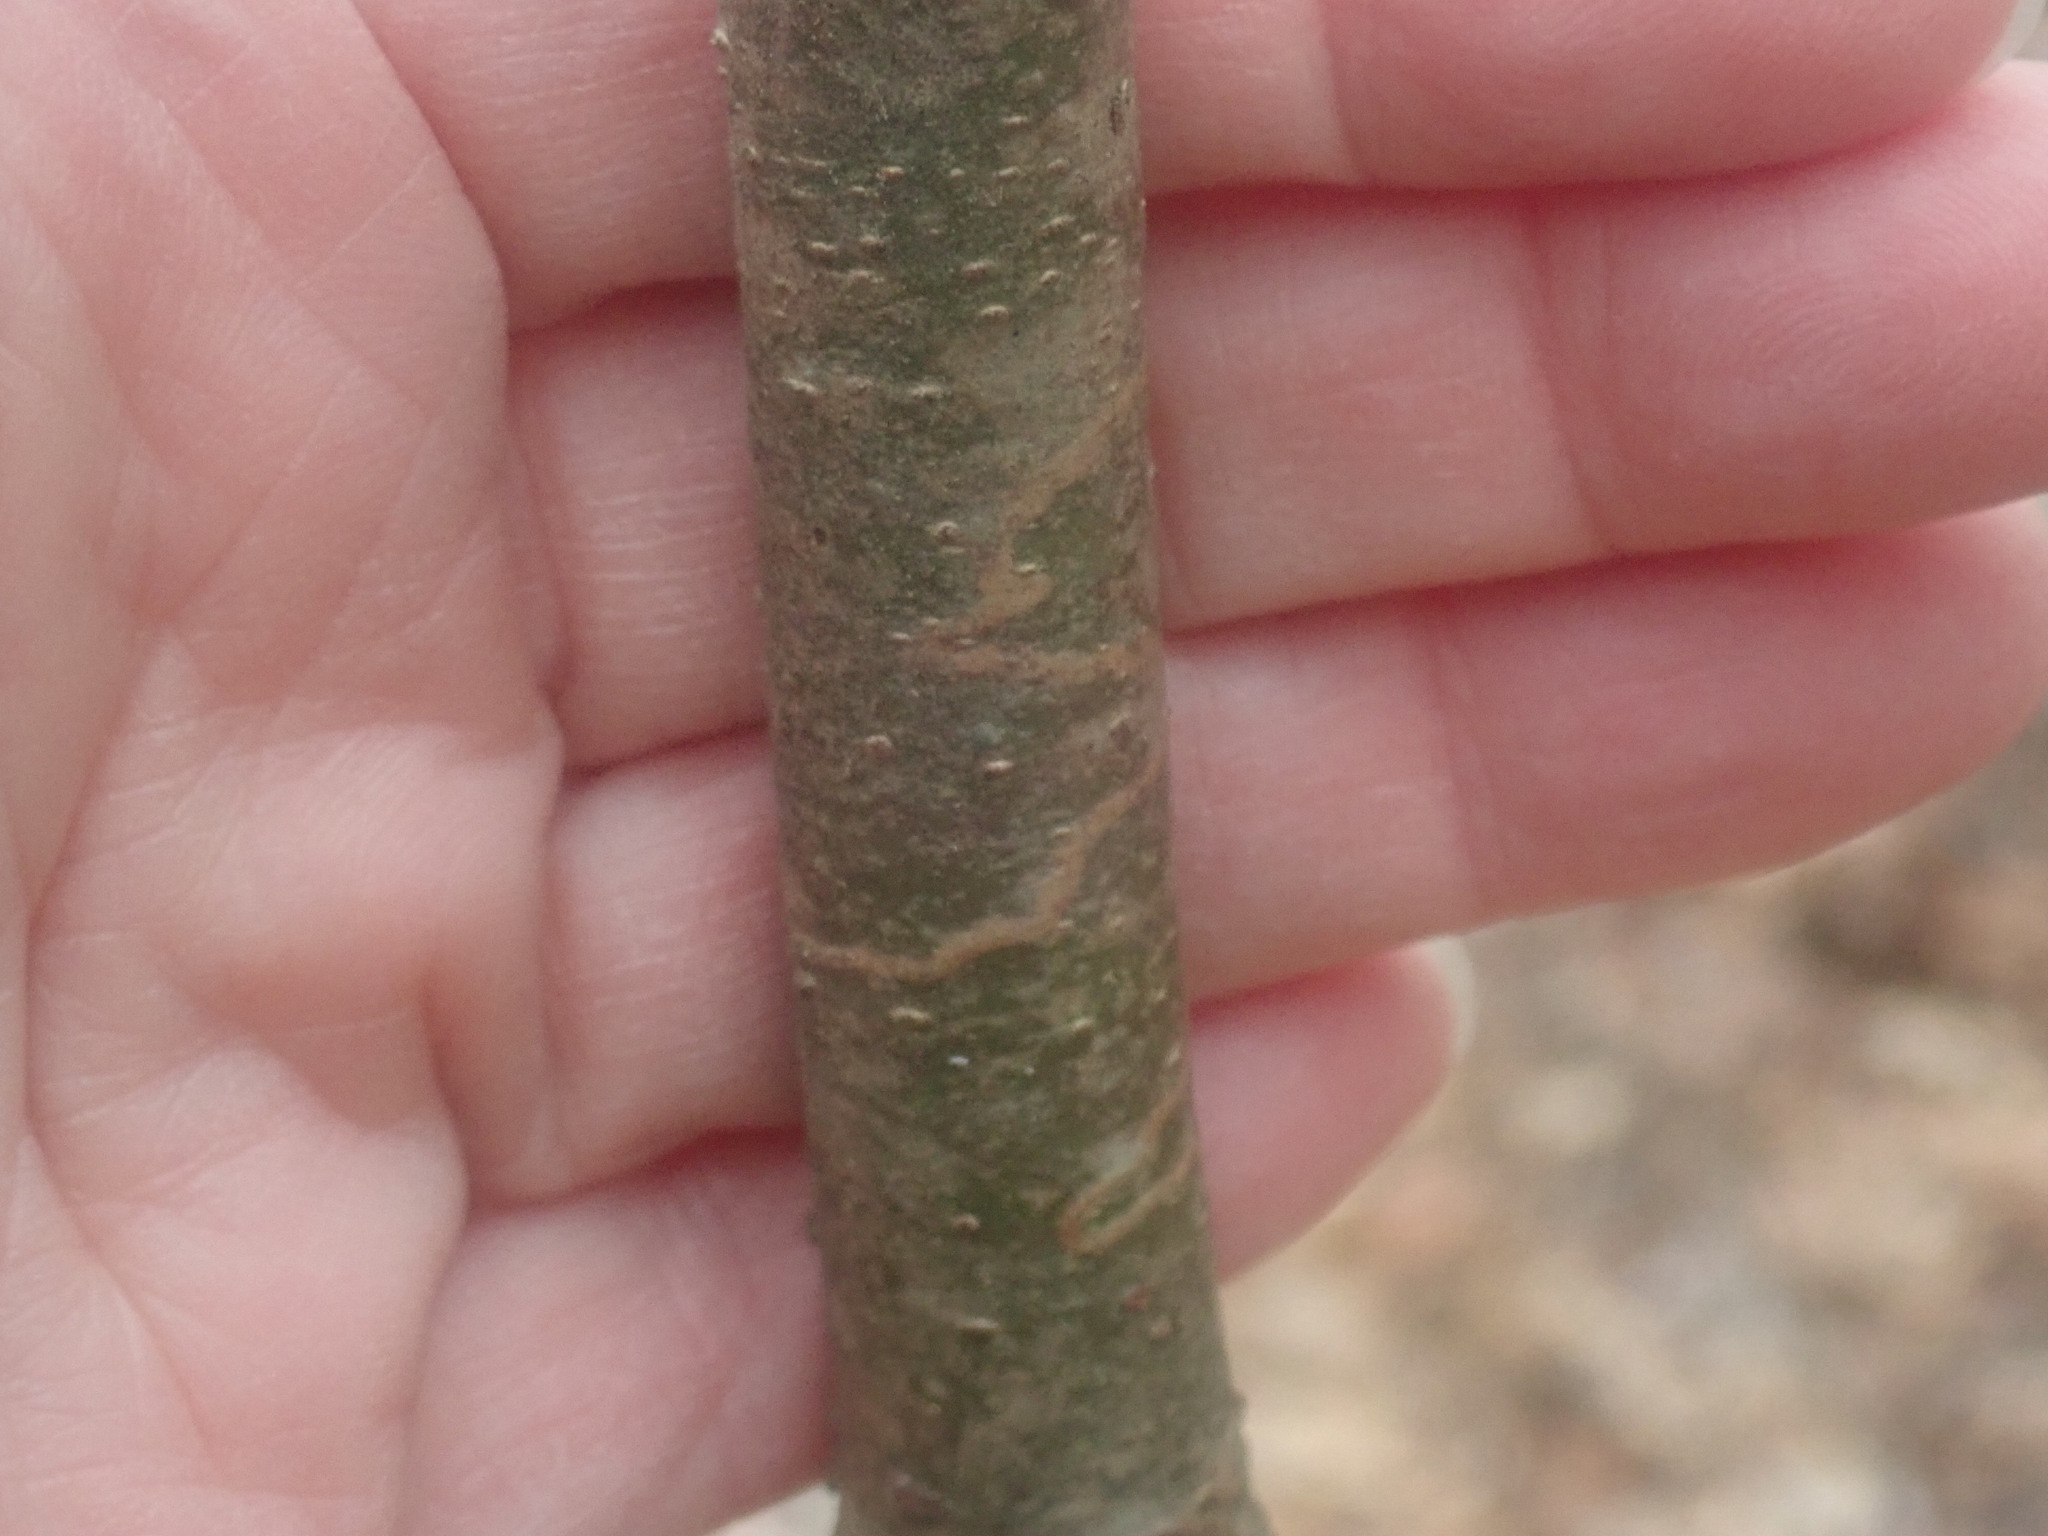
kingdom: Animalia
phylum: Arthropoda
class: Insecta
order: Lepidoptera
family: Gracillariidae
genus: Marmara
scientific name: Marmara fasciella
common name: White pine barkminer moth
